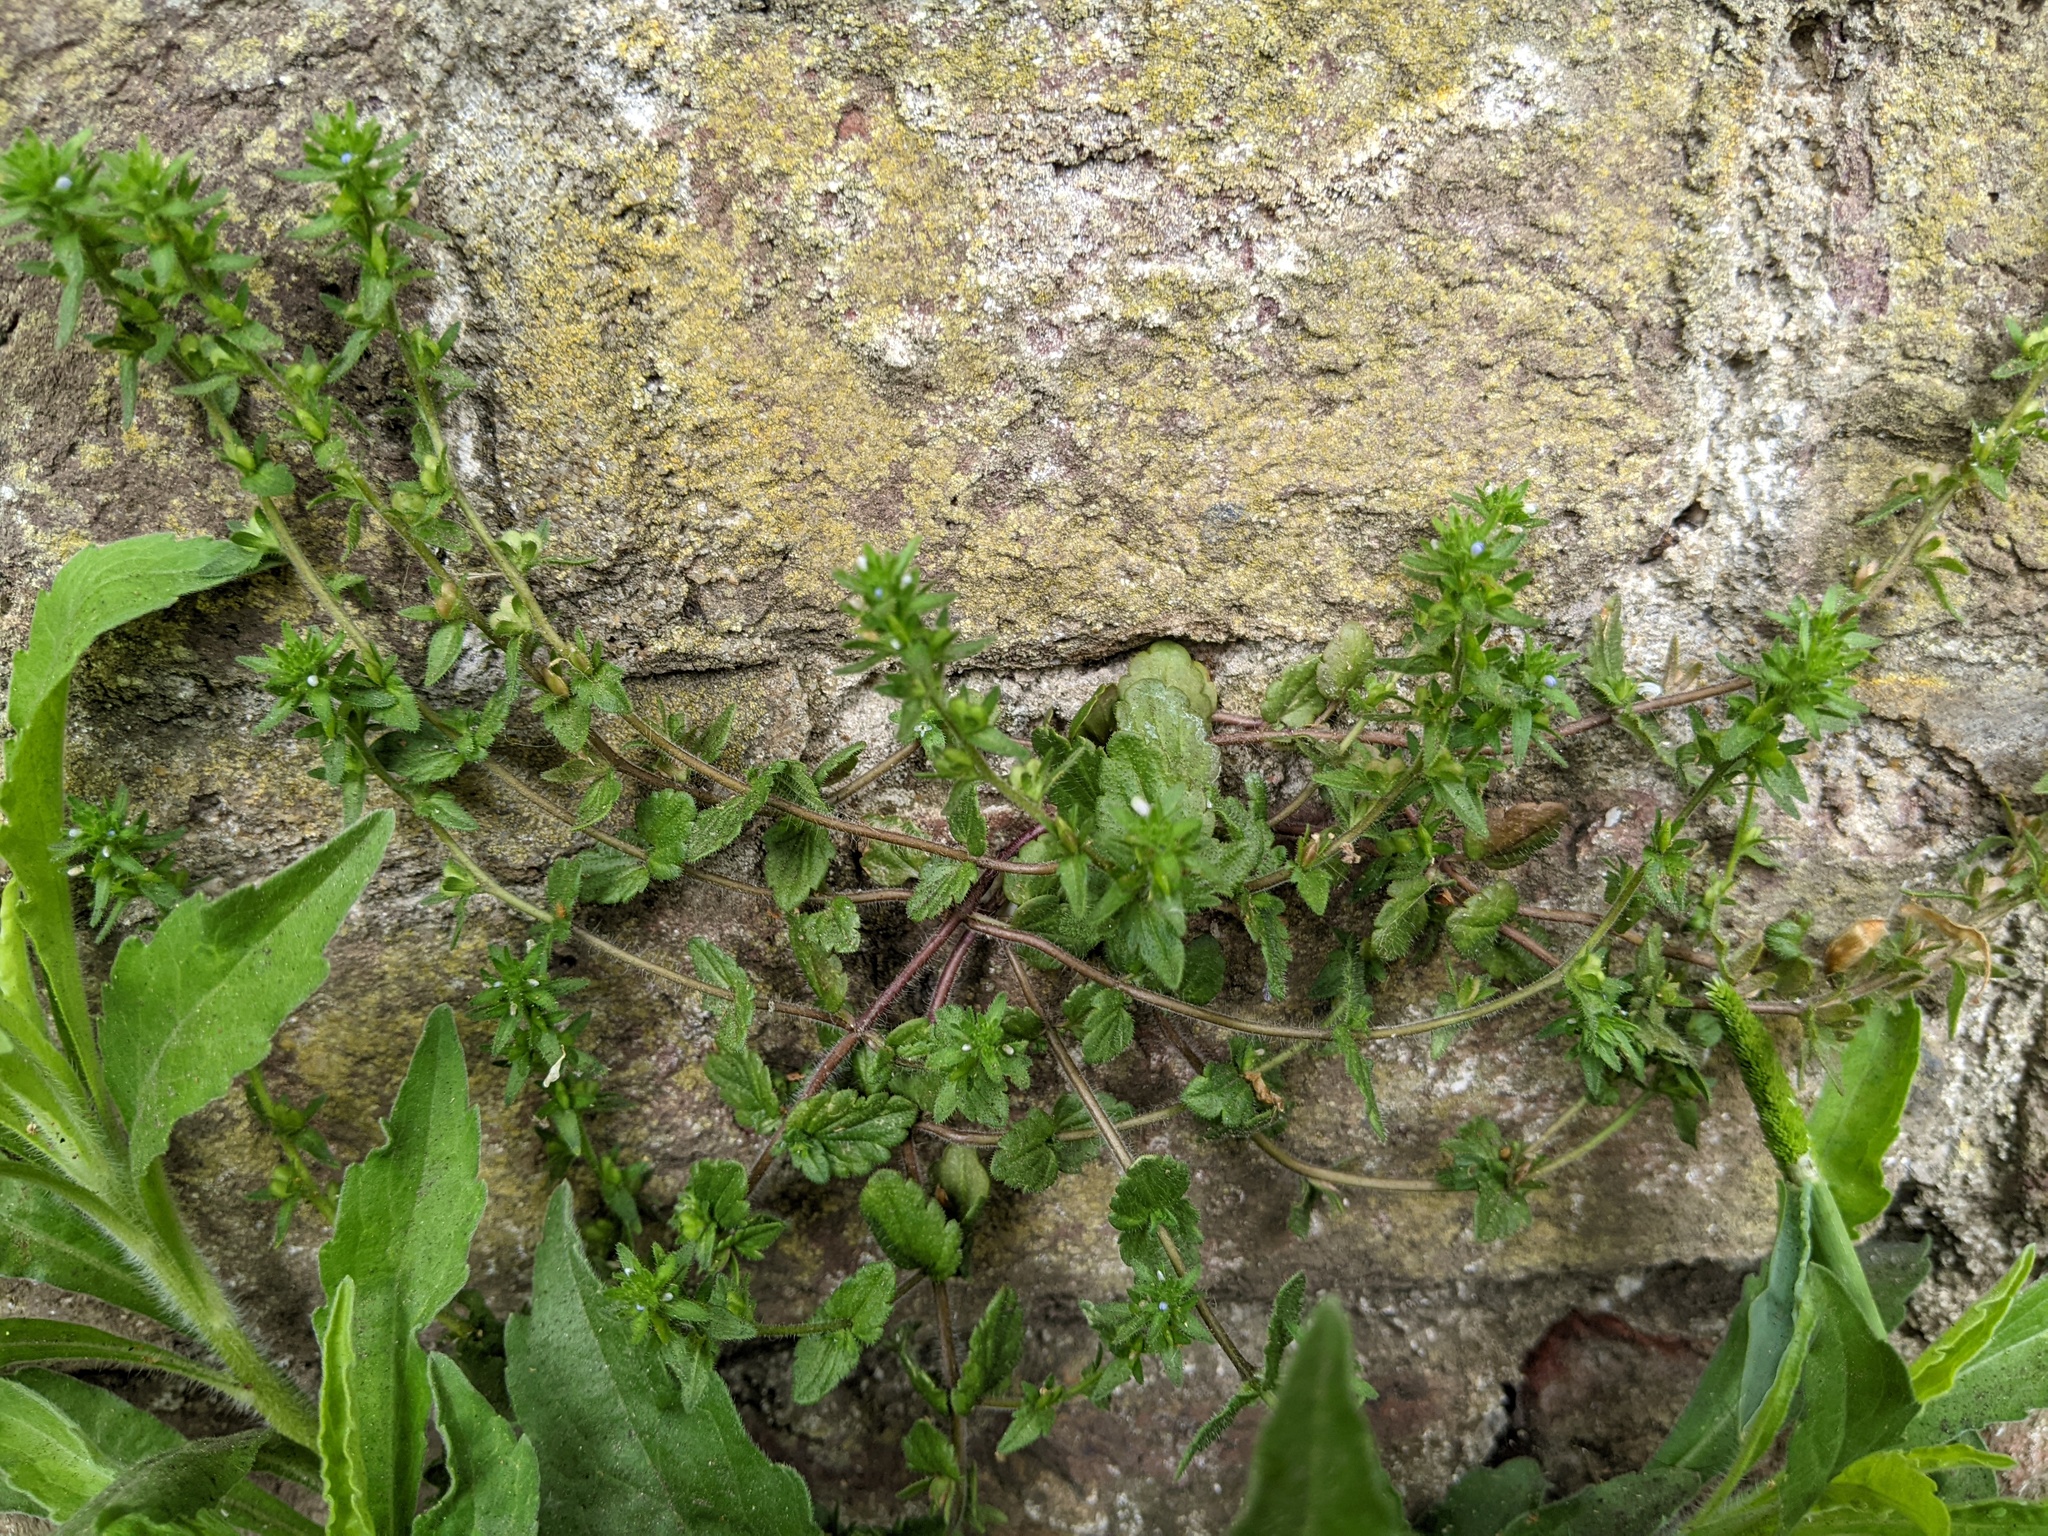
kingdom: Plantae
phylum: Tracheophyta
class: Magnoliopsida
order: Lamiales
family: Plantaginaceae
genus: Veronica
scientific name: Veronica arvensis
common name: Corn speedwell
